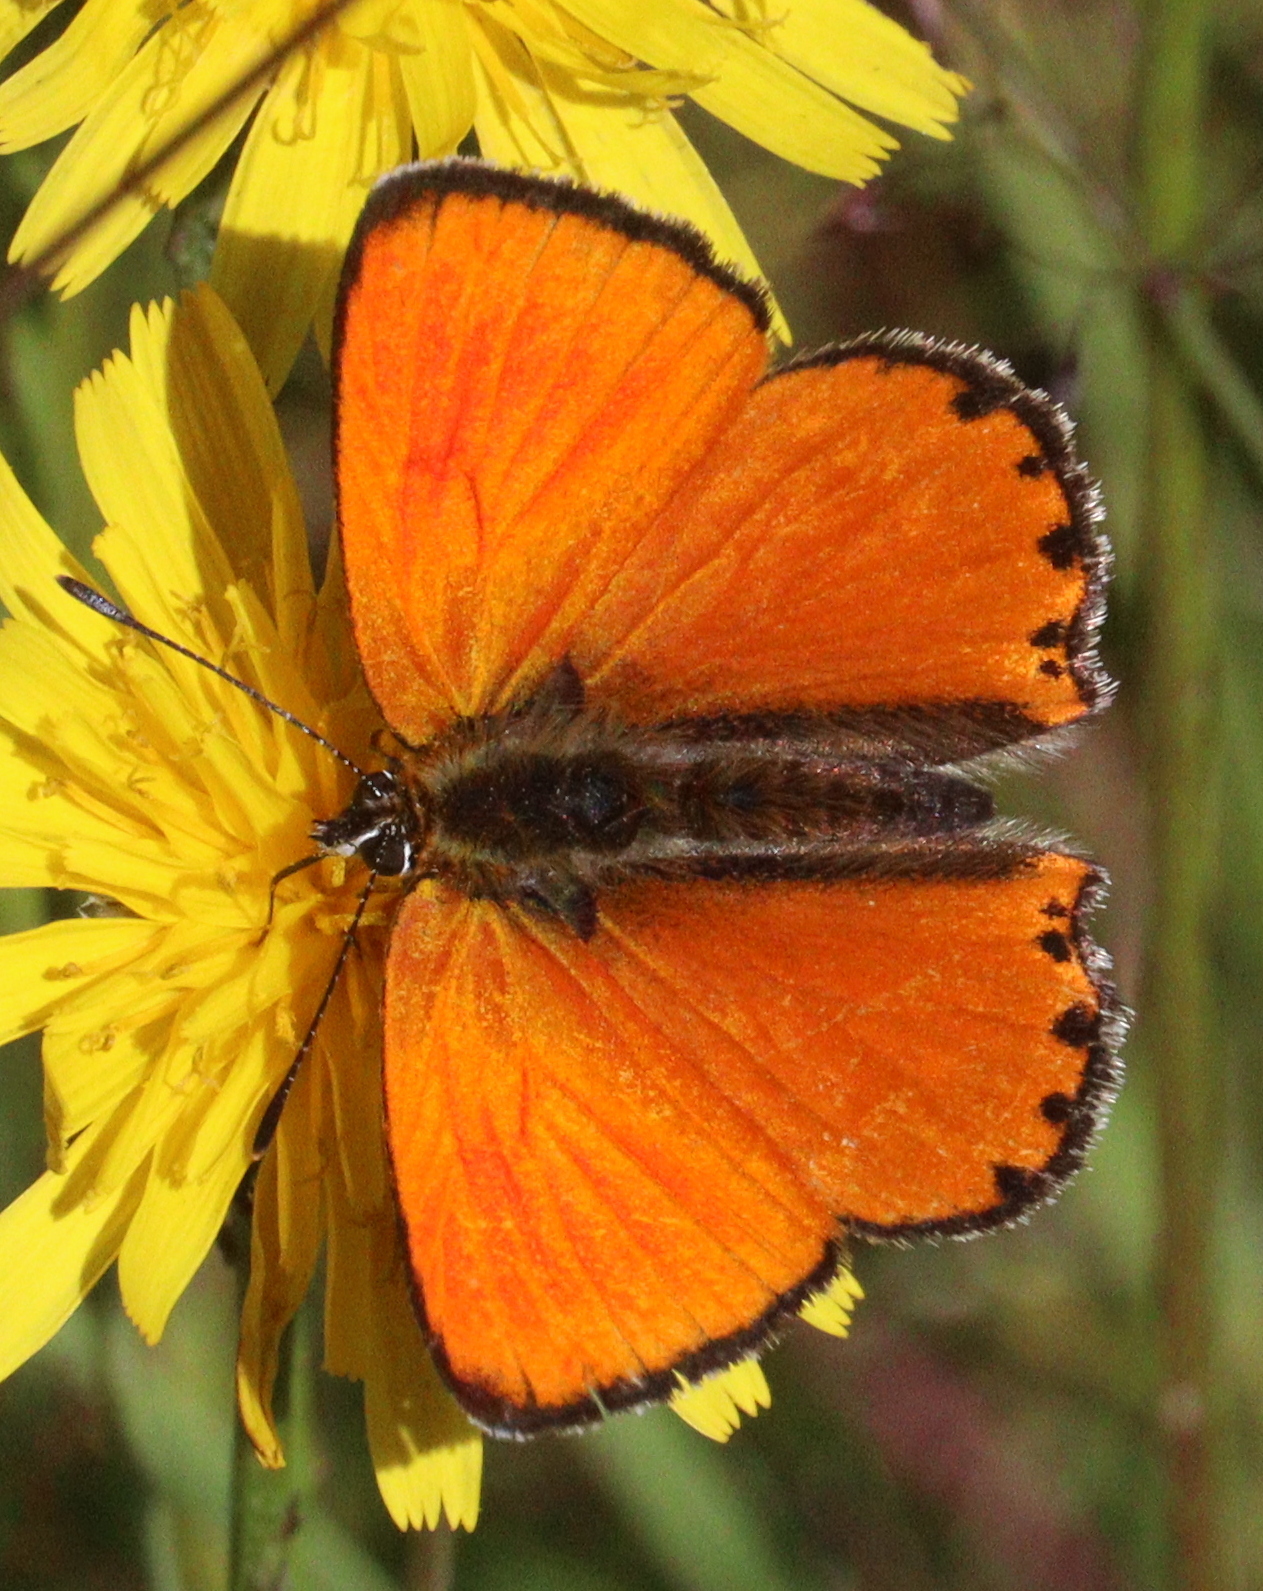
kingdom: Animalia
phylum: Arthropoda
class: Insecta
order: Lepidoptera
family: Lycaenidae
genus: Lycaena
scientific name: Lycaena virgaureae
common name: Scarce copper
